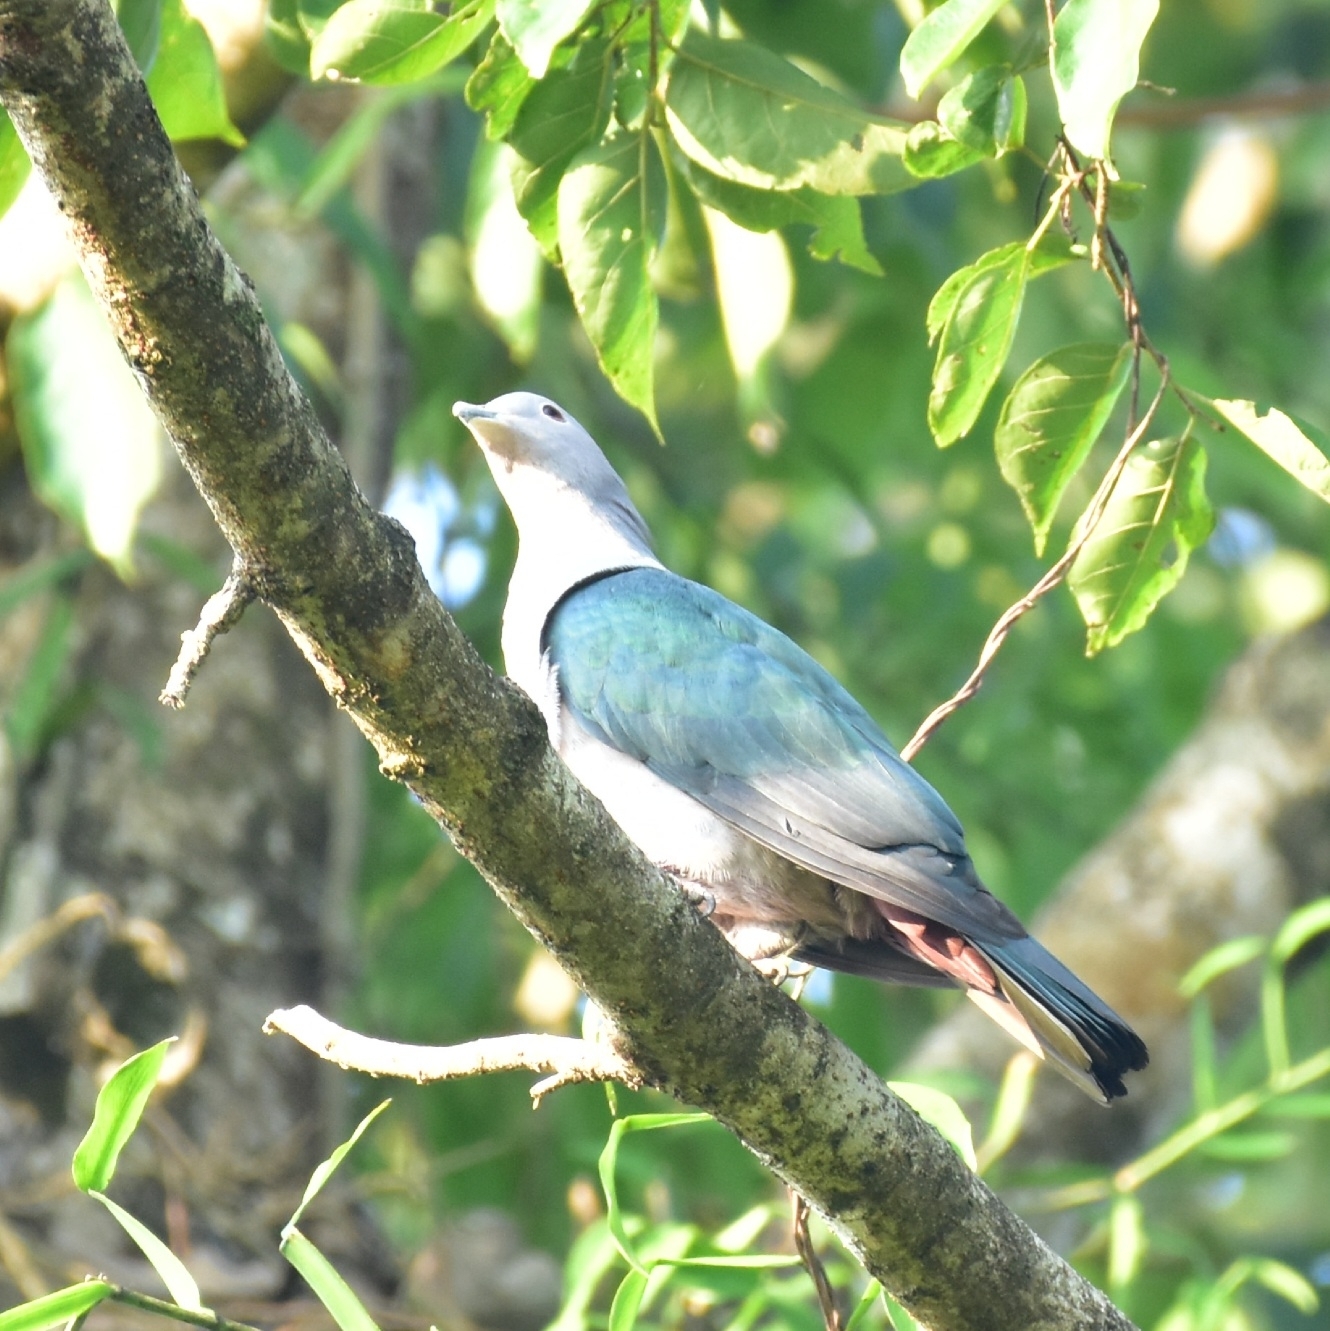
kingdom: Animalia
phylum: Chordata
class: Aves
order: Columbiformes
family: Columbidae
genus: Ducula
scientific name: Ducula aenea
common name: Green imperial pigeon
